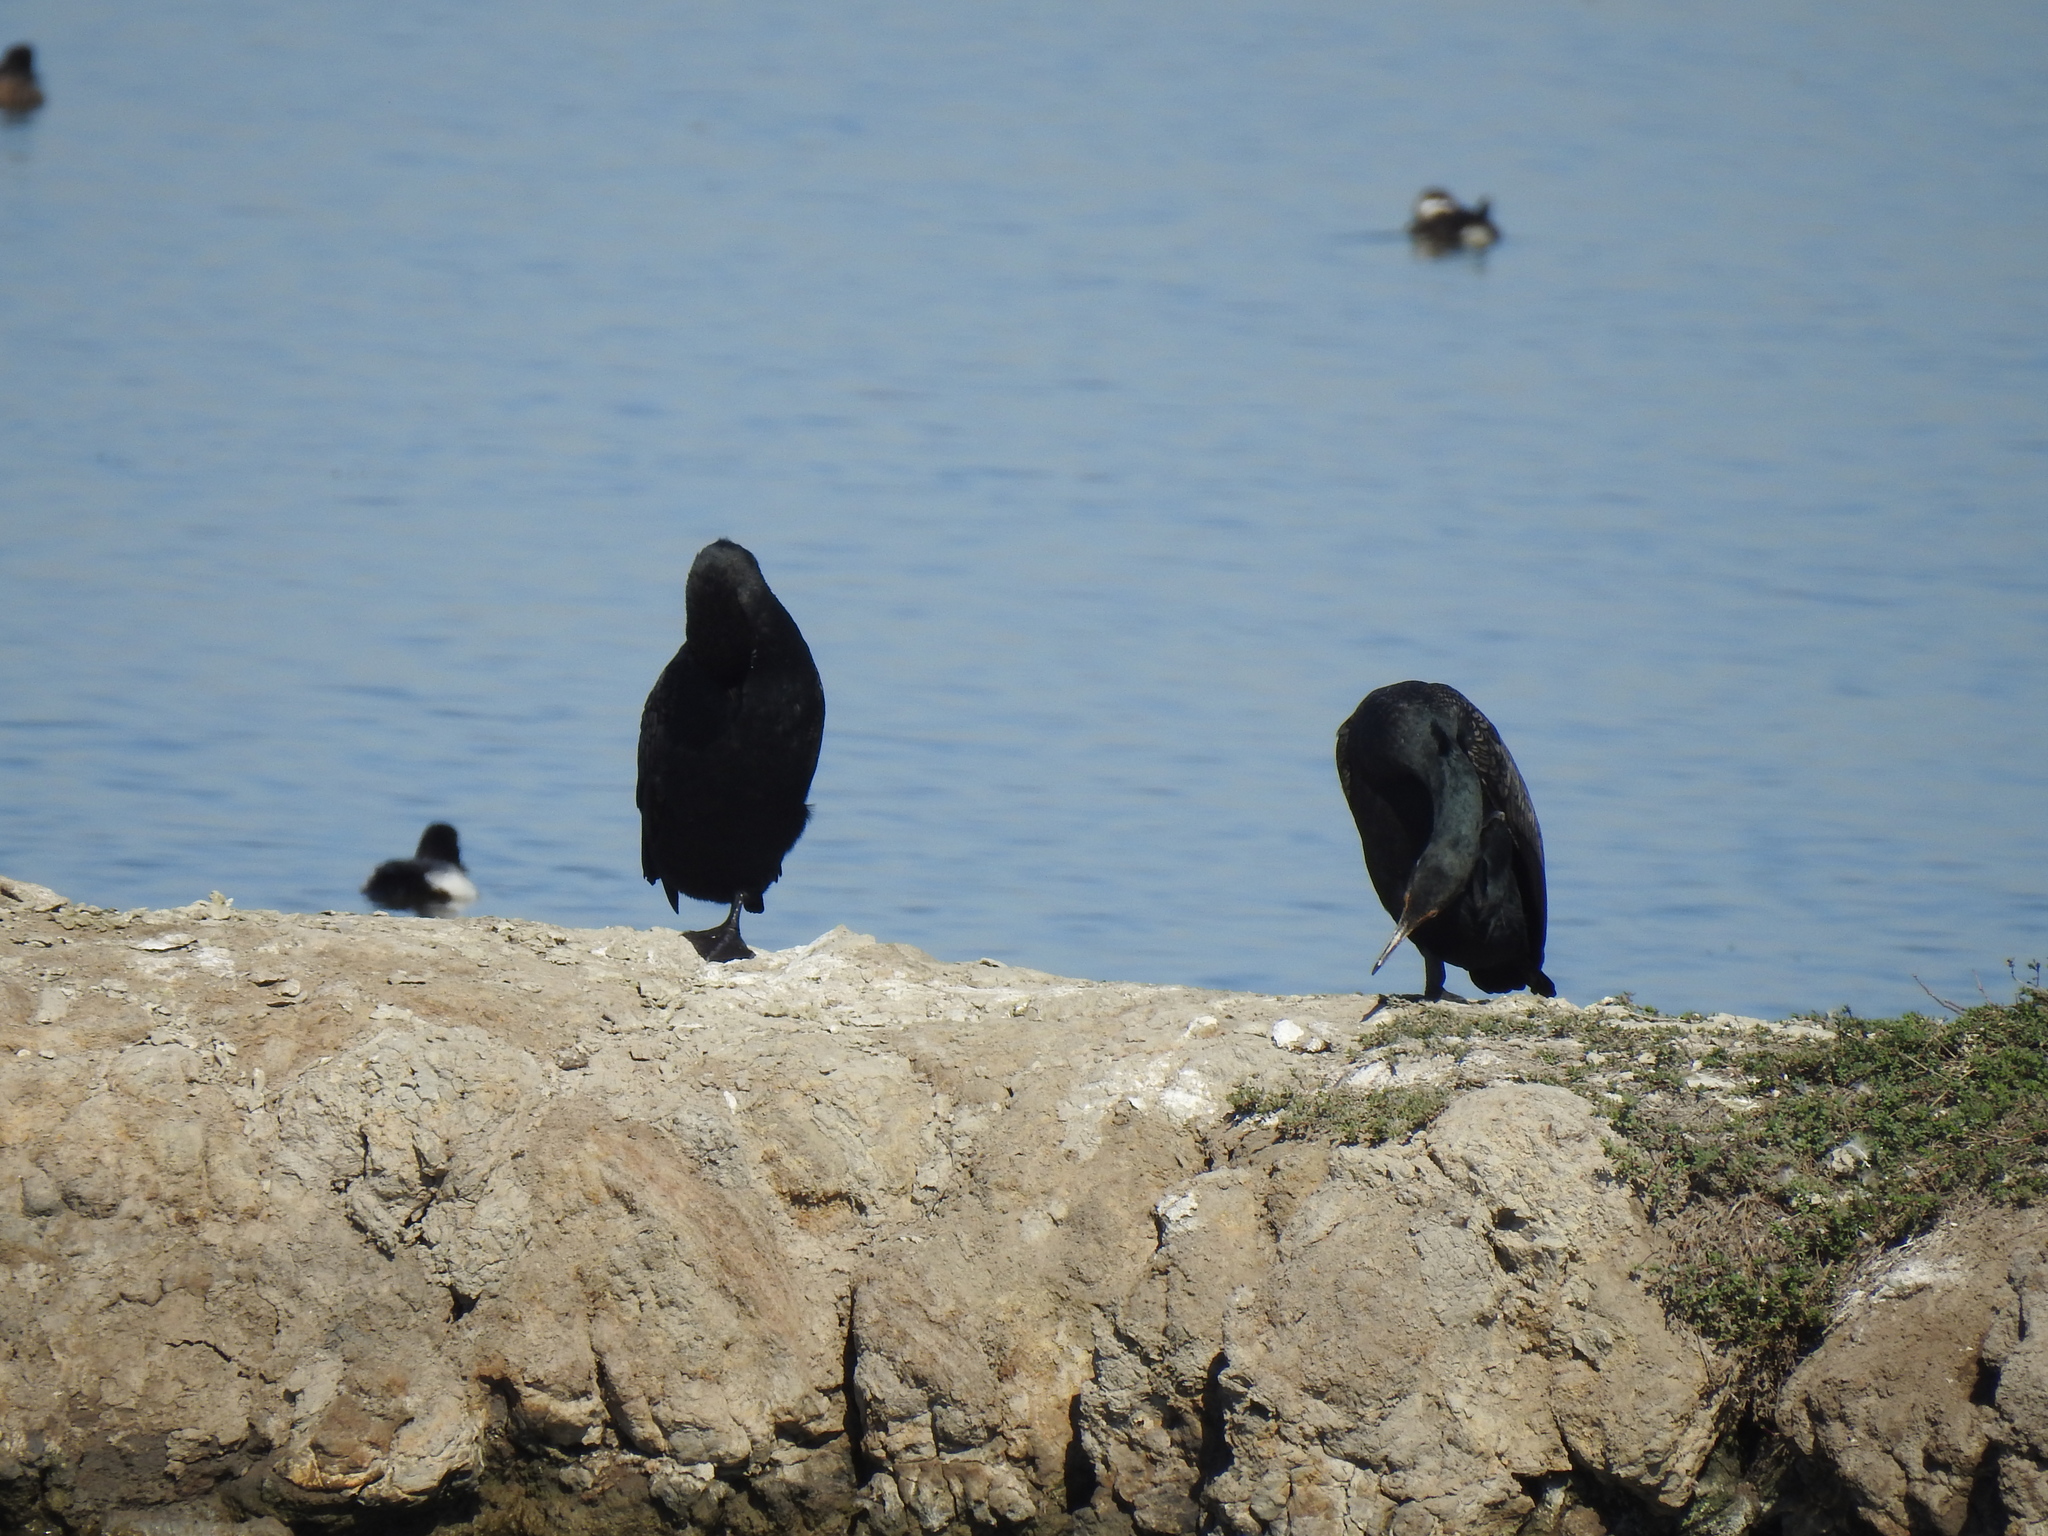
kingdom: Animalia
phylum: Chordata
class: Aves
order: Suliformes
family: Phalacrocoracidae
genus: Phalacrocorax
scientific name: Phalacrocorax auritus
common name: Double-crested cormorant
